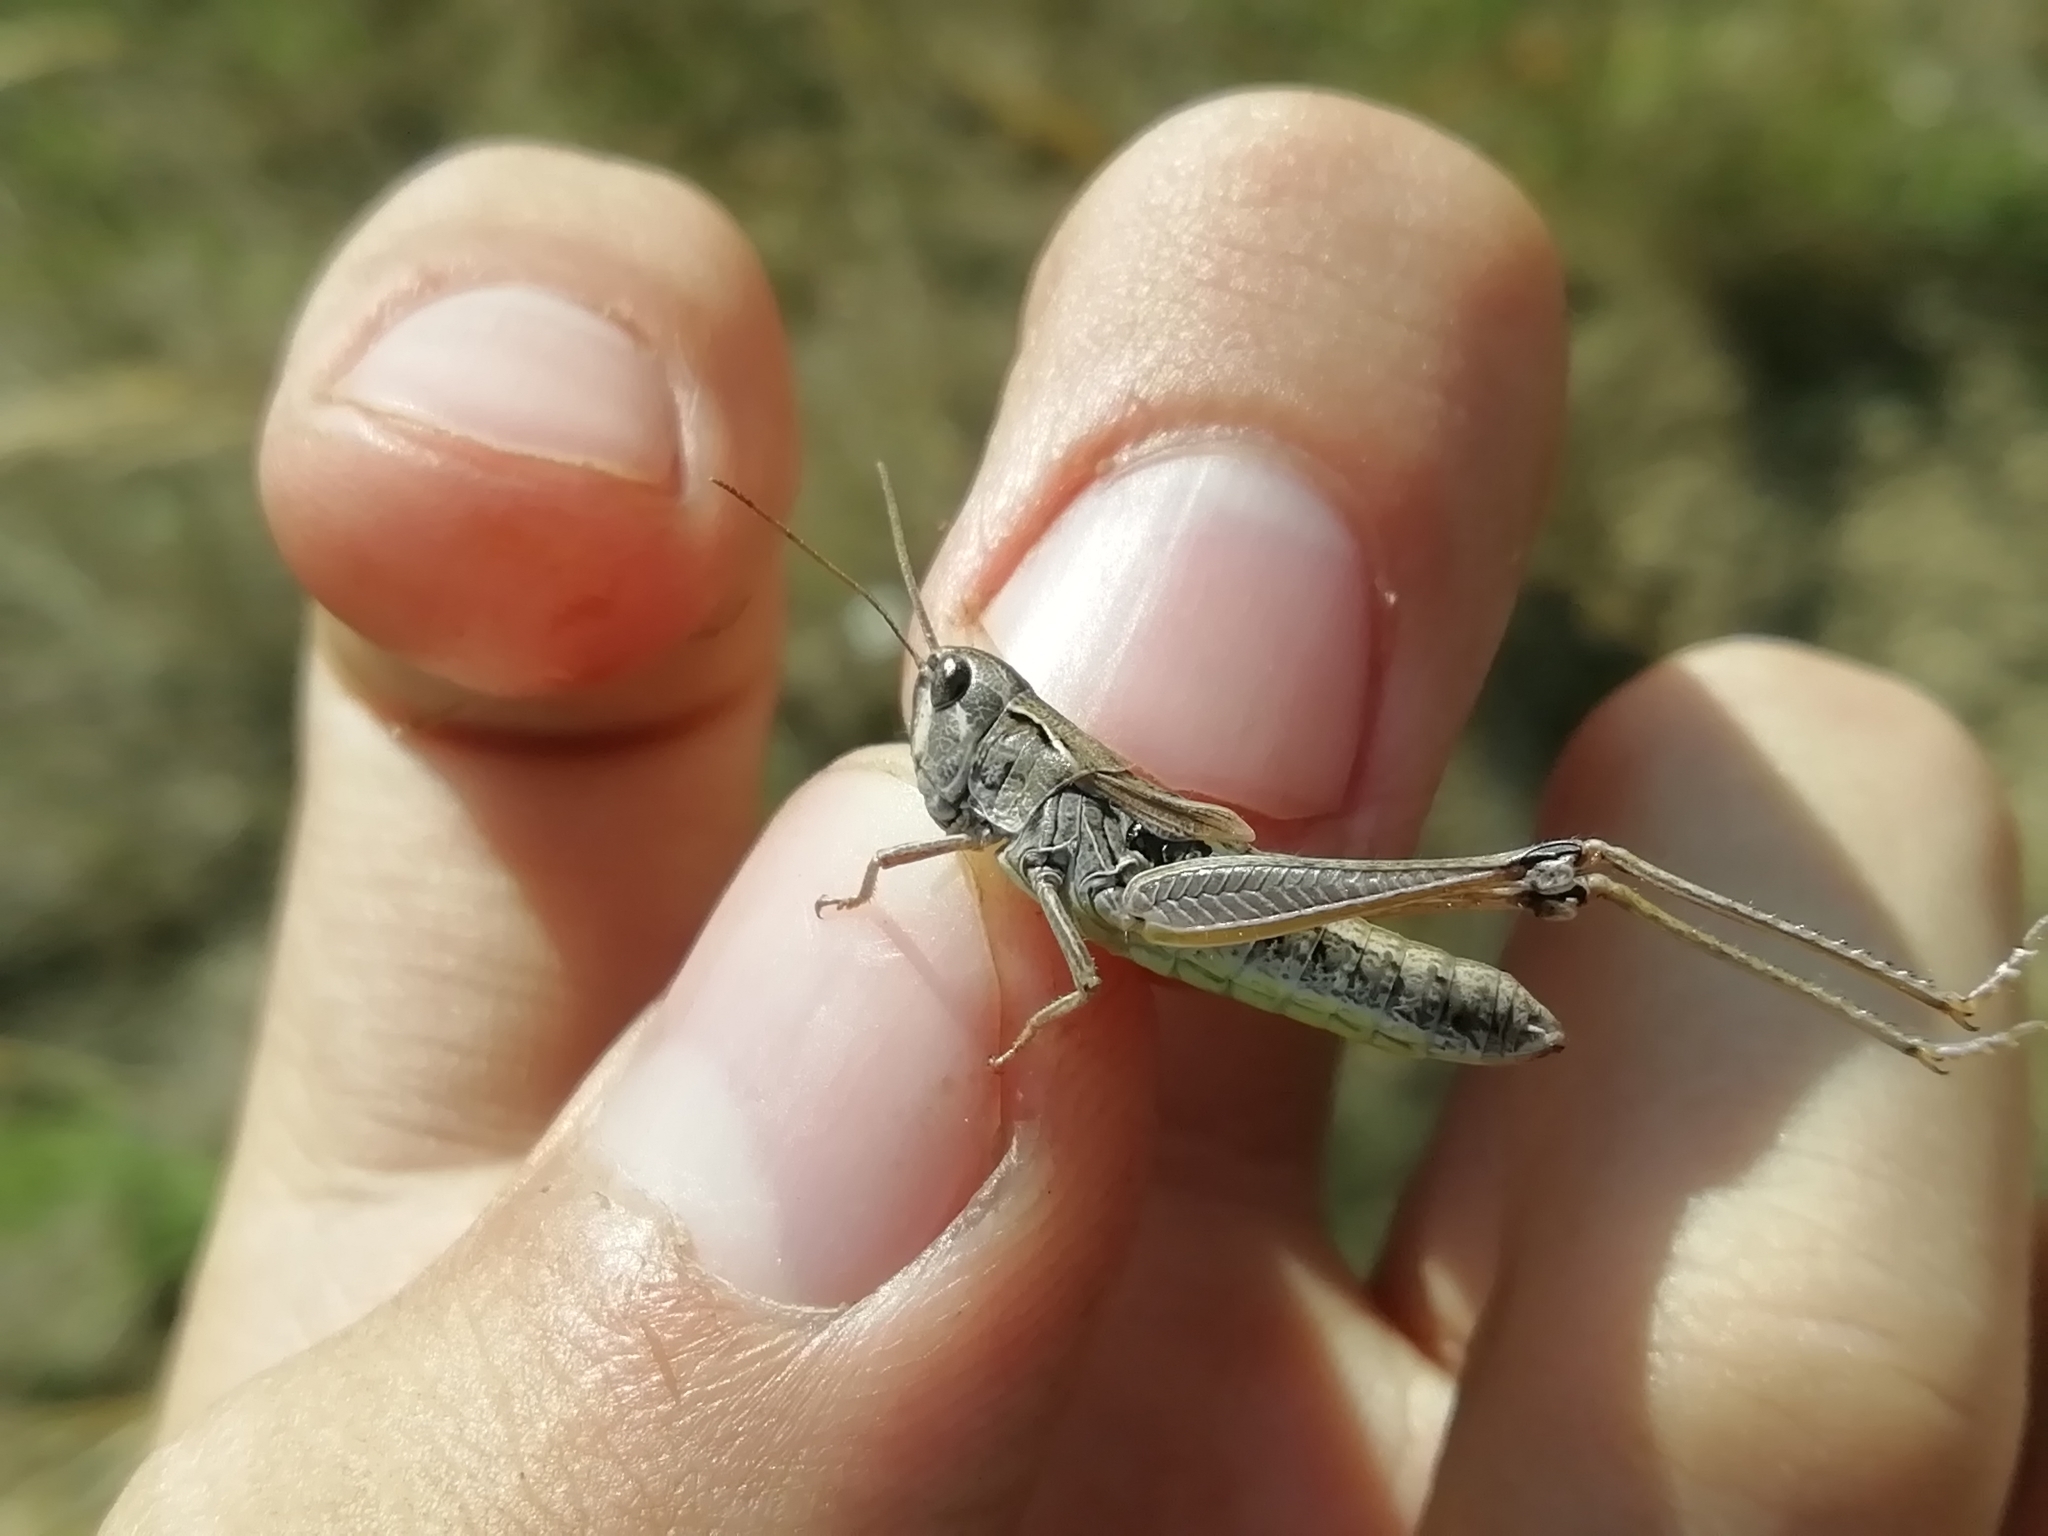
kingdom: Animalia
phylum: Arthropoda
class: Insecta
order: Orthoptera
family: Acrididae
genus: Chorthippus
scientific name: Chorthippus fallax
